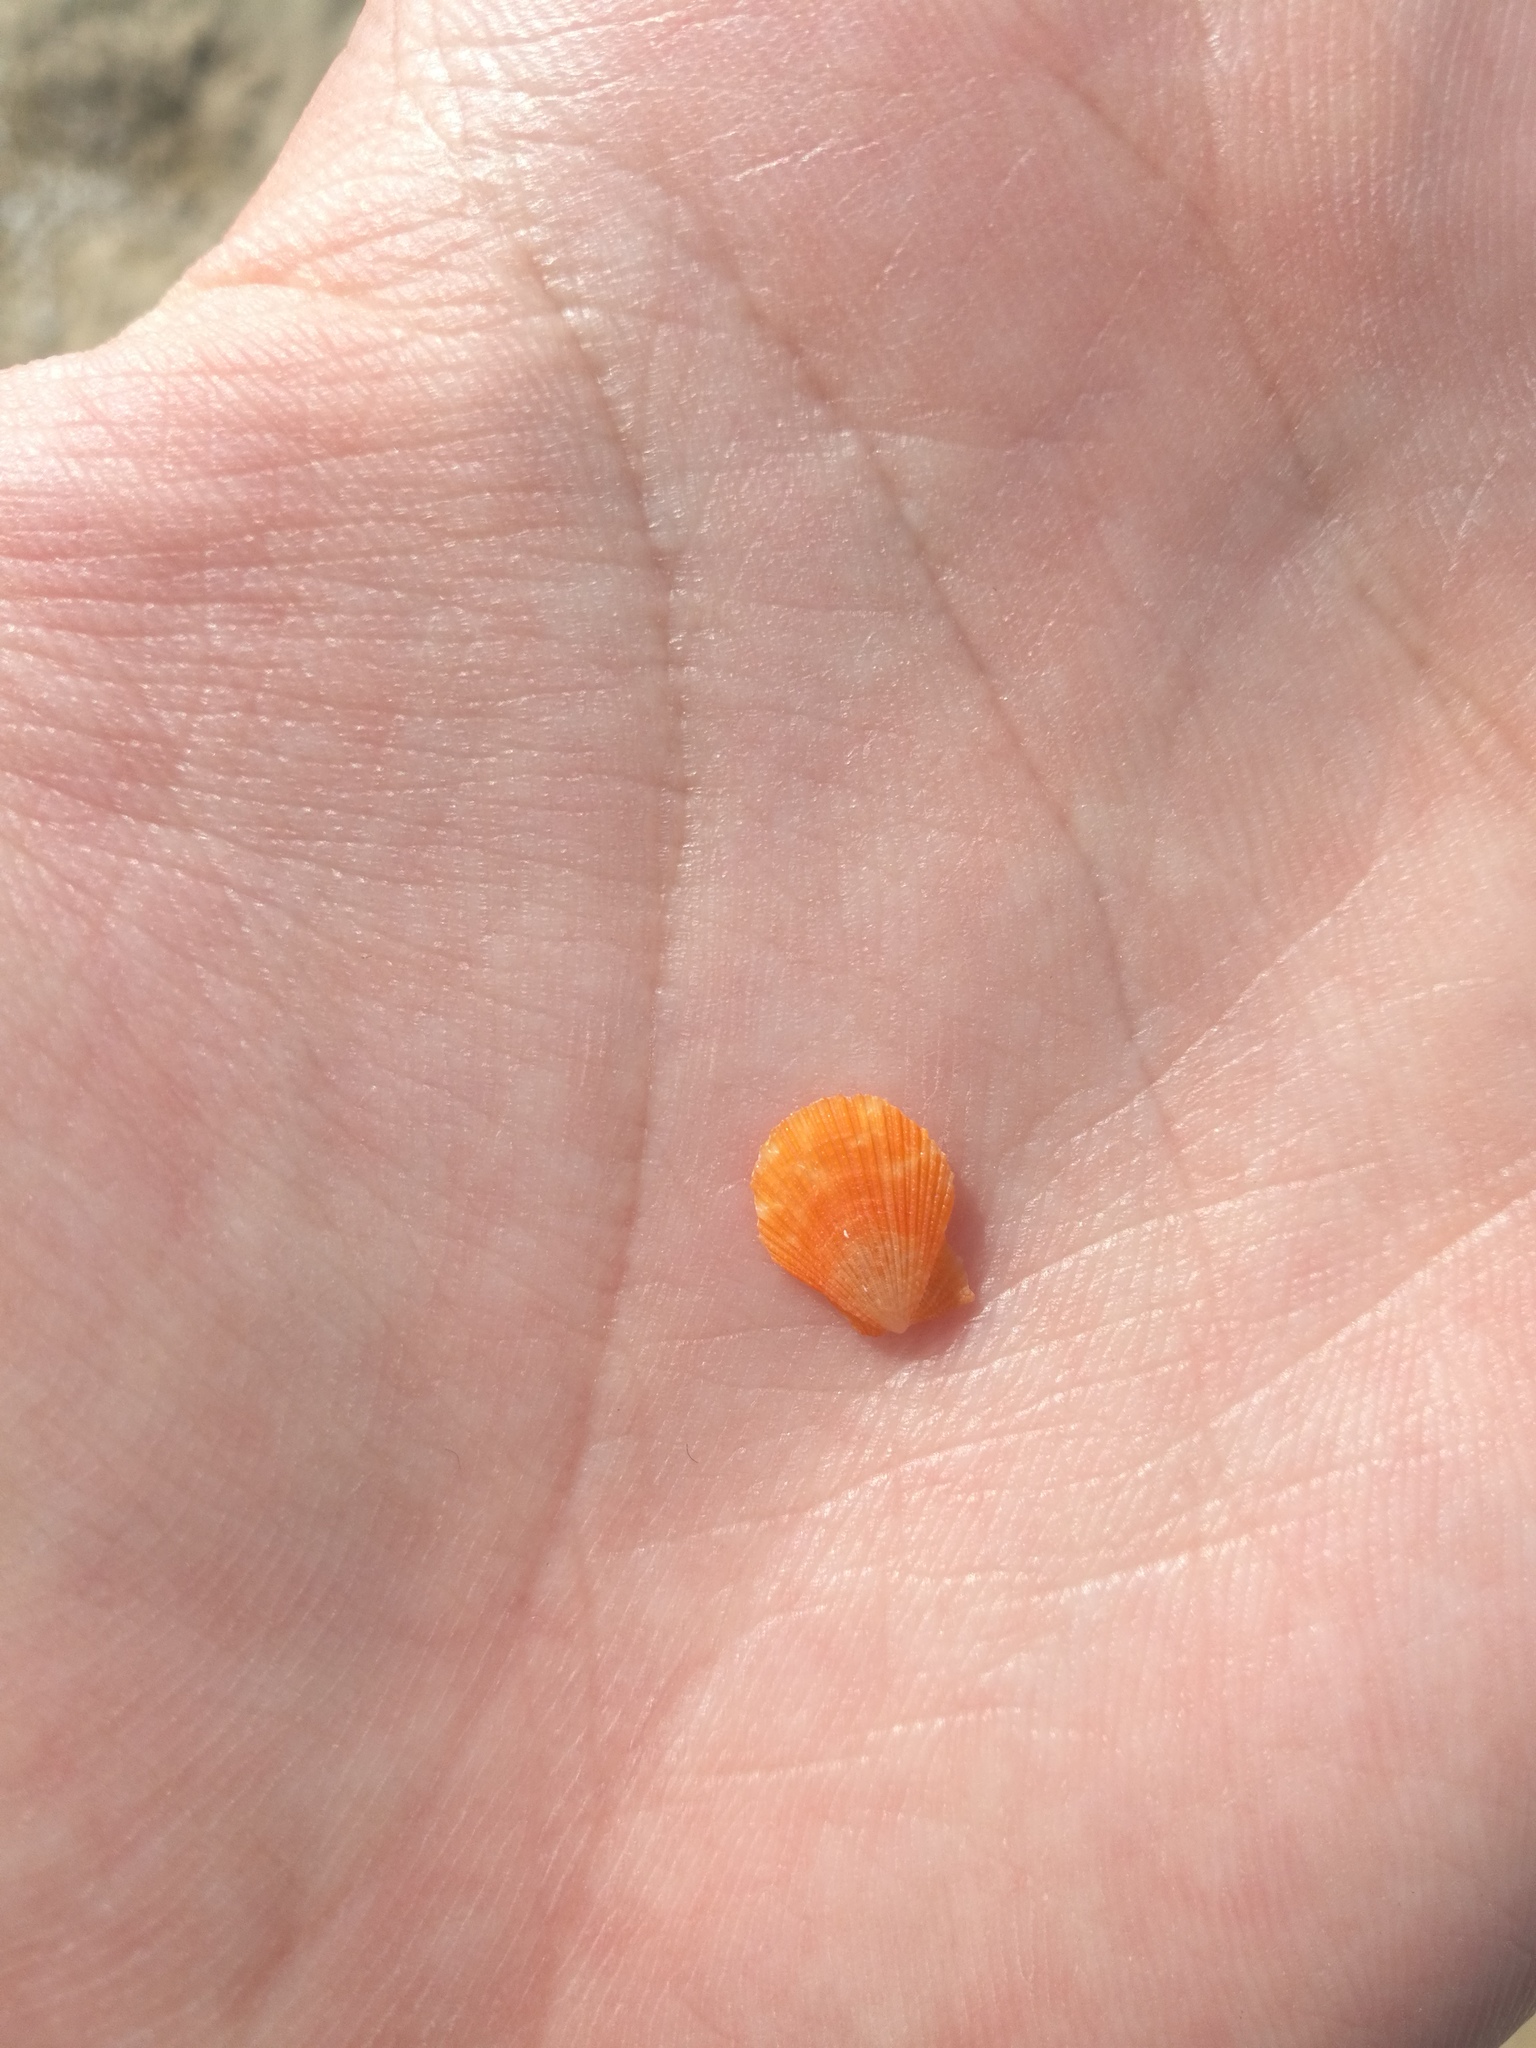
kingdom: Animalia
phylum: Mollusca
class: Bivalvia
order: Pectinida
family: Pectinidae
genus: Talochlamys
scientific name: Talochlamys multistriata
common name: Tinted scallop
